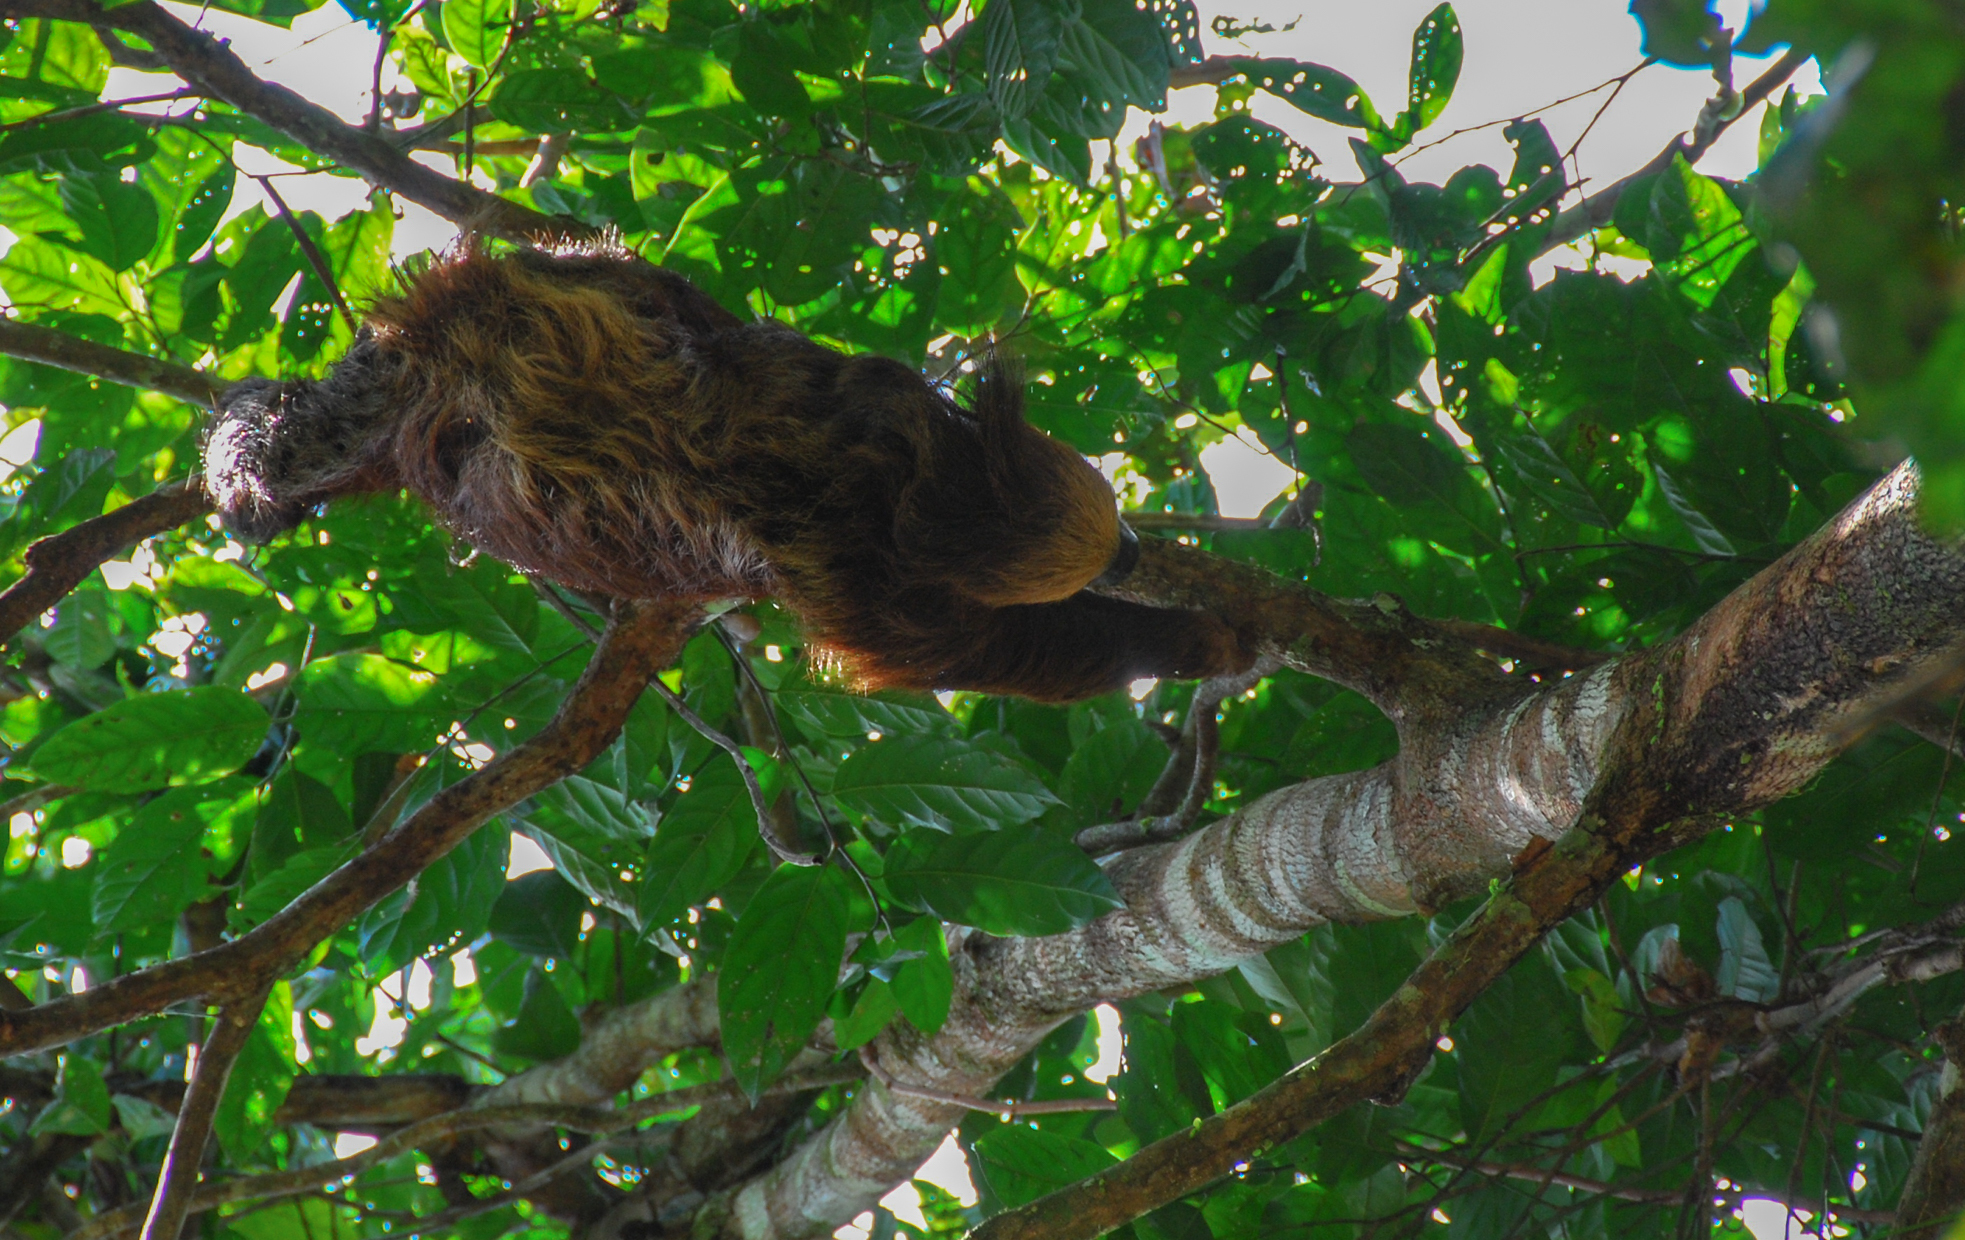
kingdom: Animalia
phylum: Chordata
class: Mammalia
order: Pilosa
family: Megalonychidae
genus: Choloepus
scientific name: Choloepus didactylus
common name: Southern two-toed sloth
